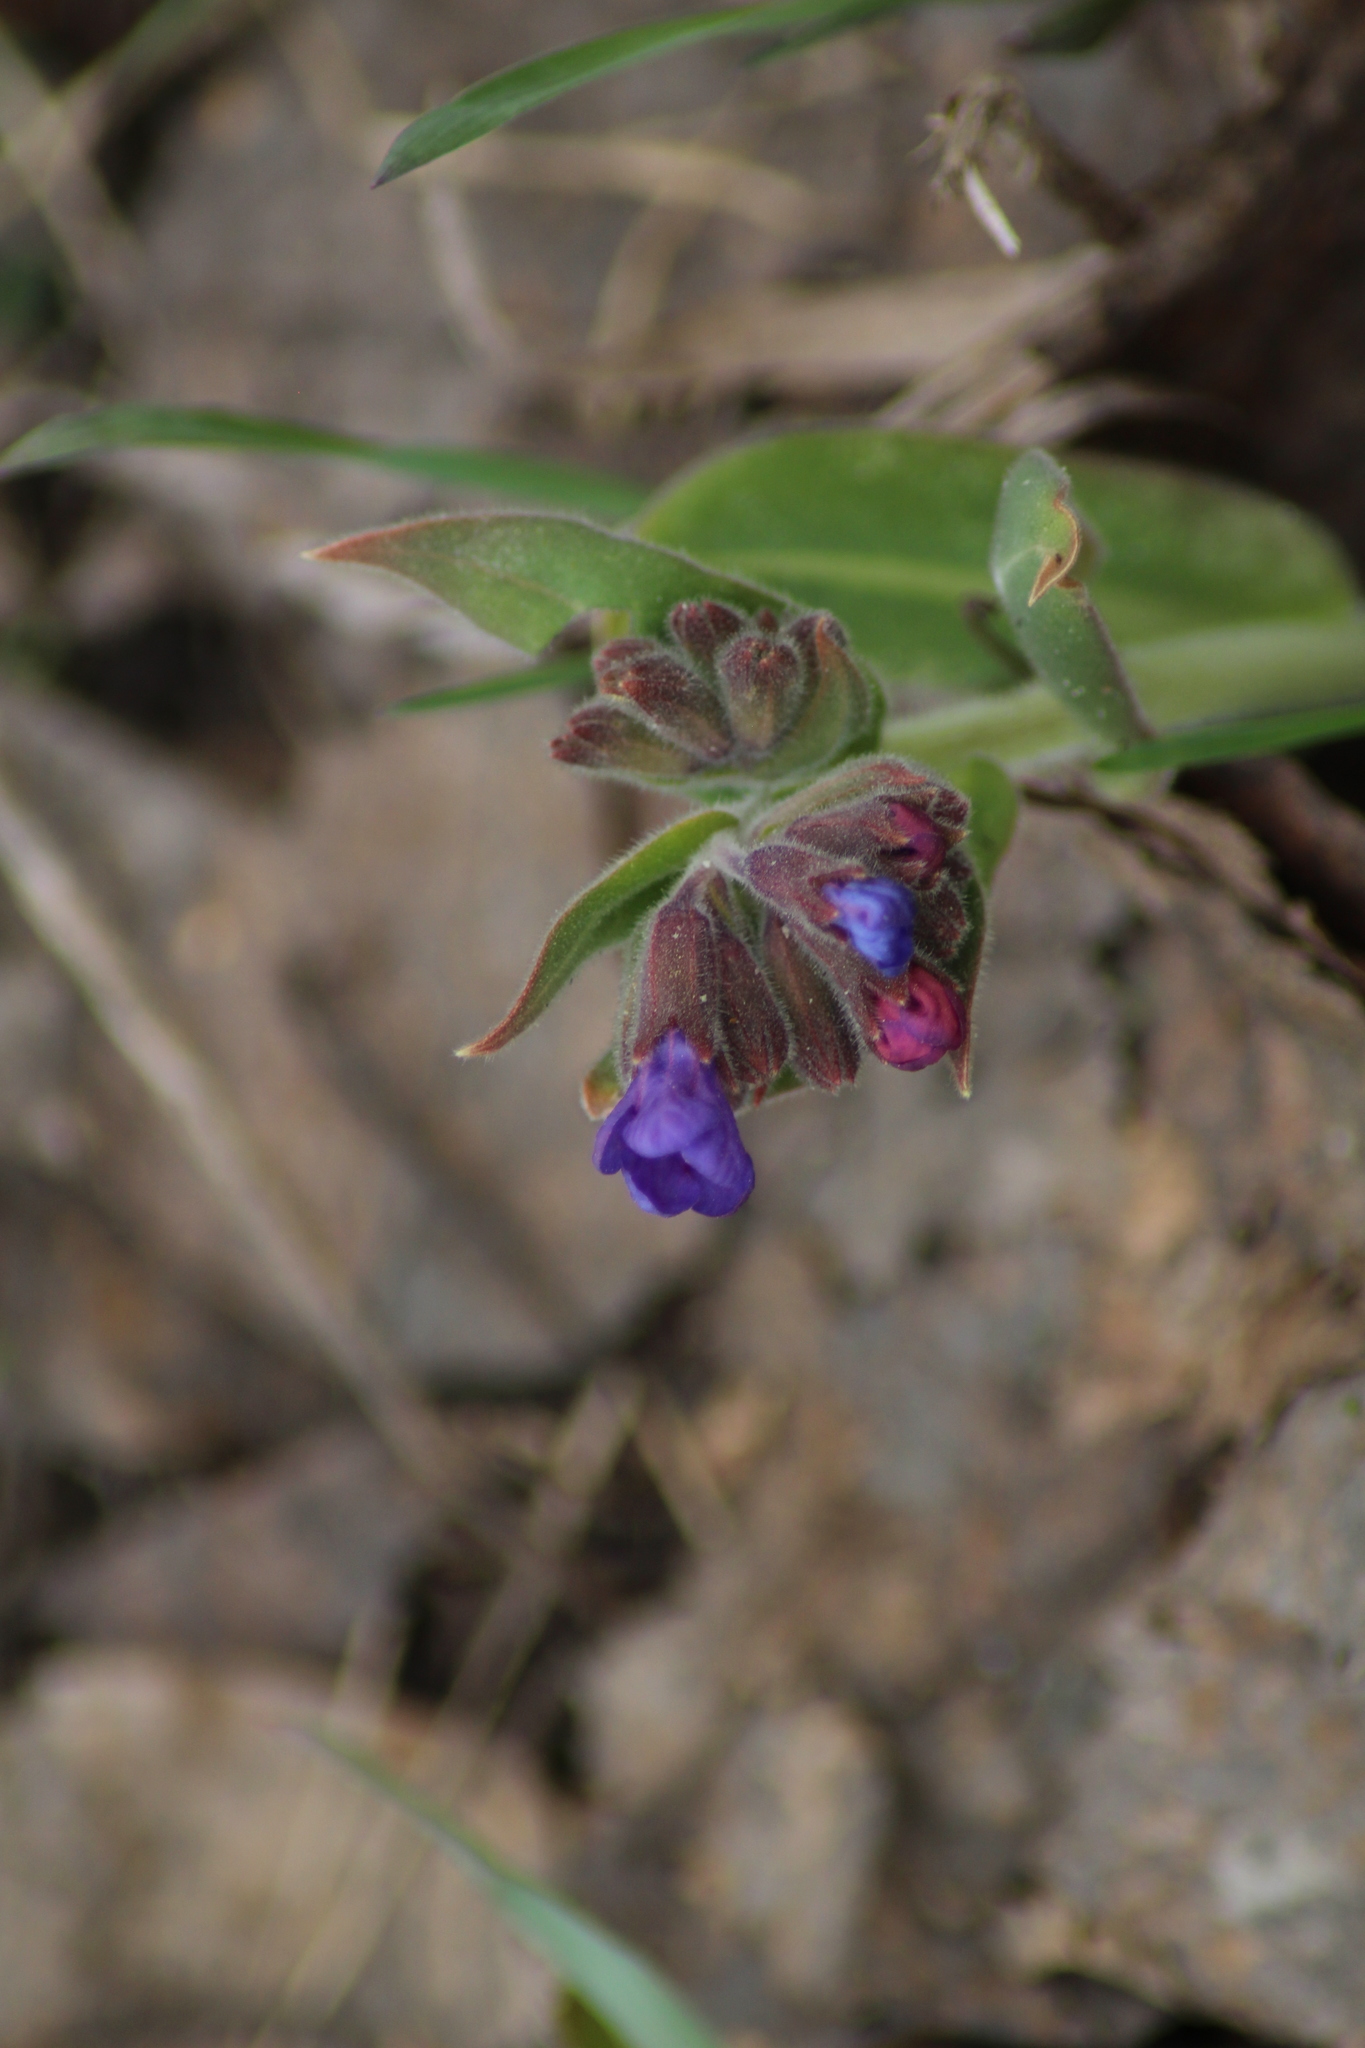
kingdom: Plantae
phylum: Tracheophyta
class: Magnoliopsida
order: Boraginales
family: Boraginaceae
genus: Pulmonaria
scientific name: Pulmonaria mollis
